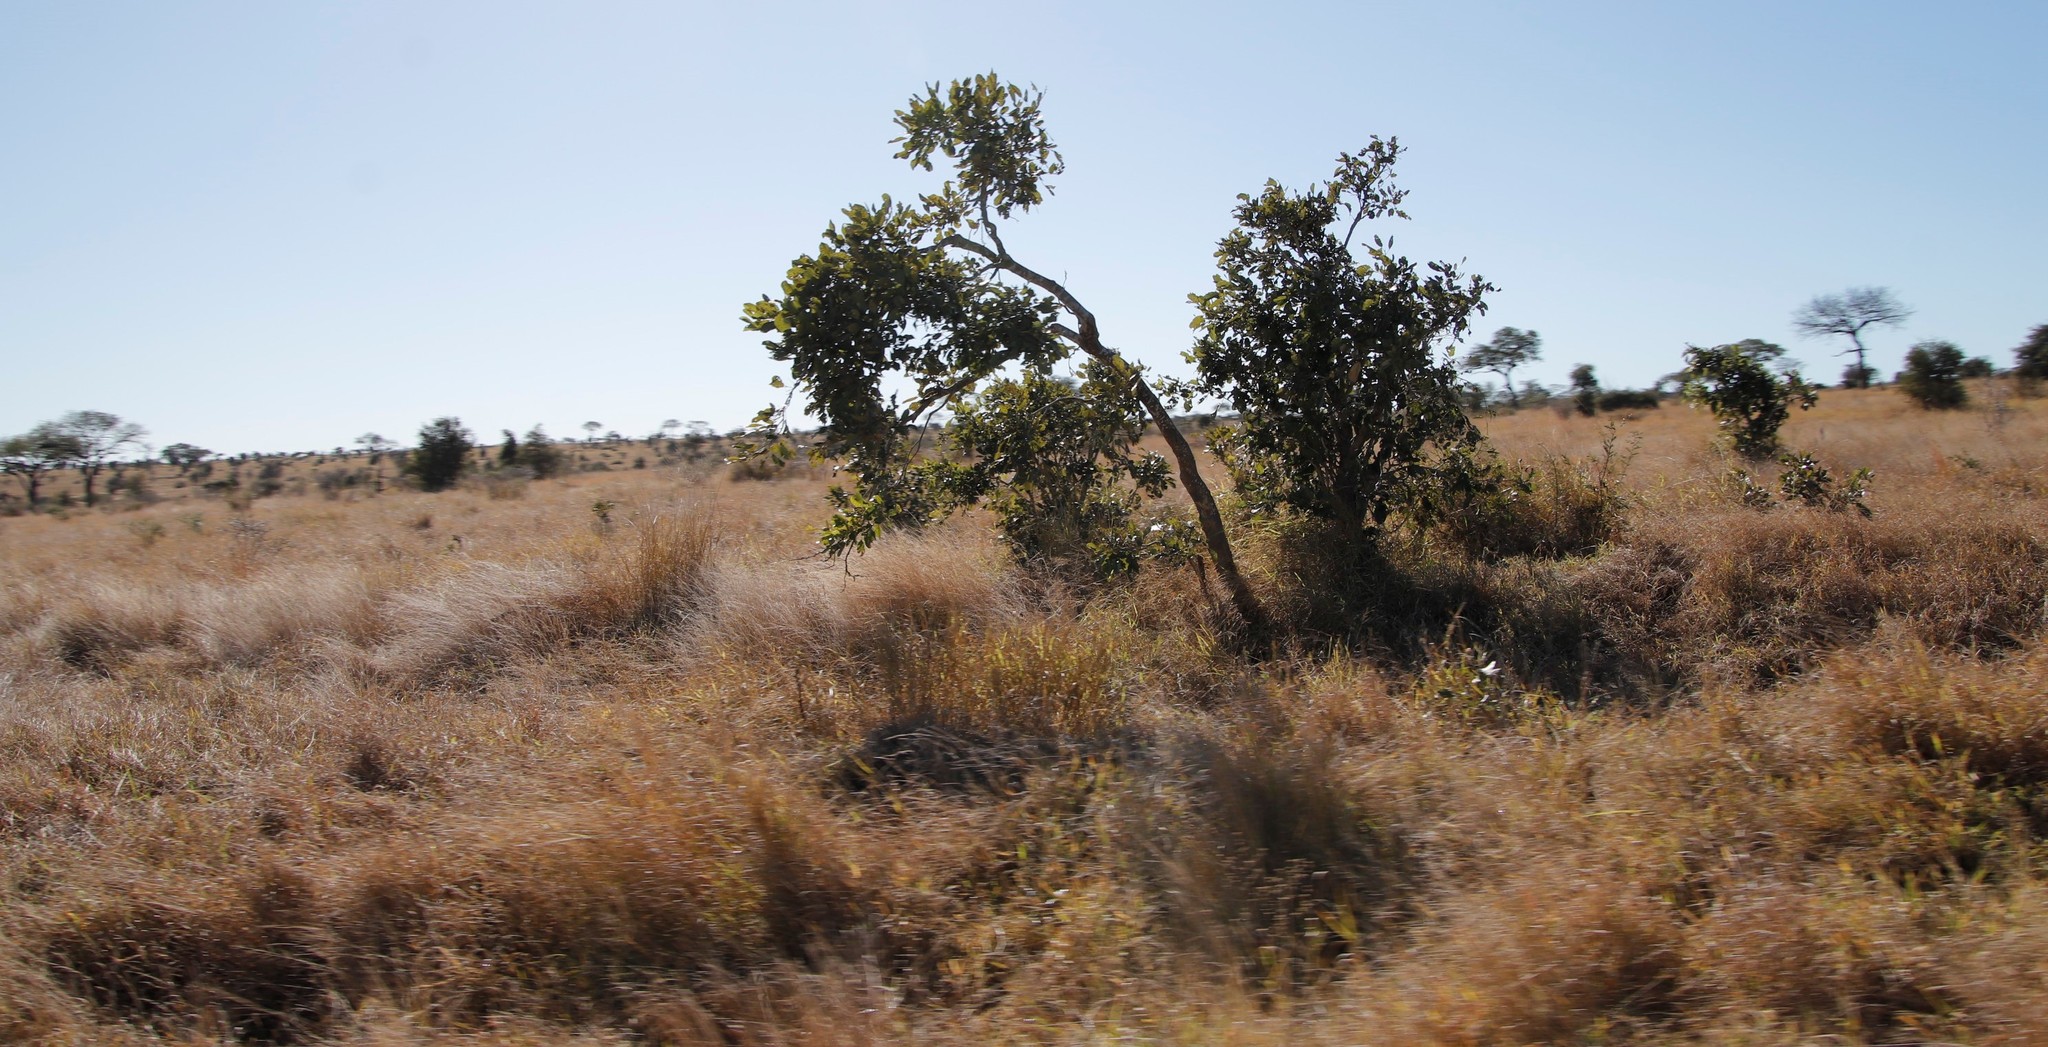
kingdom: Plantae
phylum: Tracheophyta
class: Magnoliopsida
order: Fabales
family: Fabaceae
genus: Philenoptera
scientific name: Philenoptera violacea
